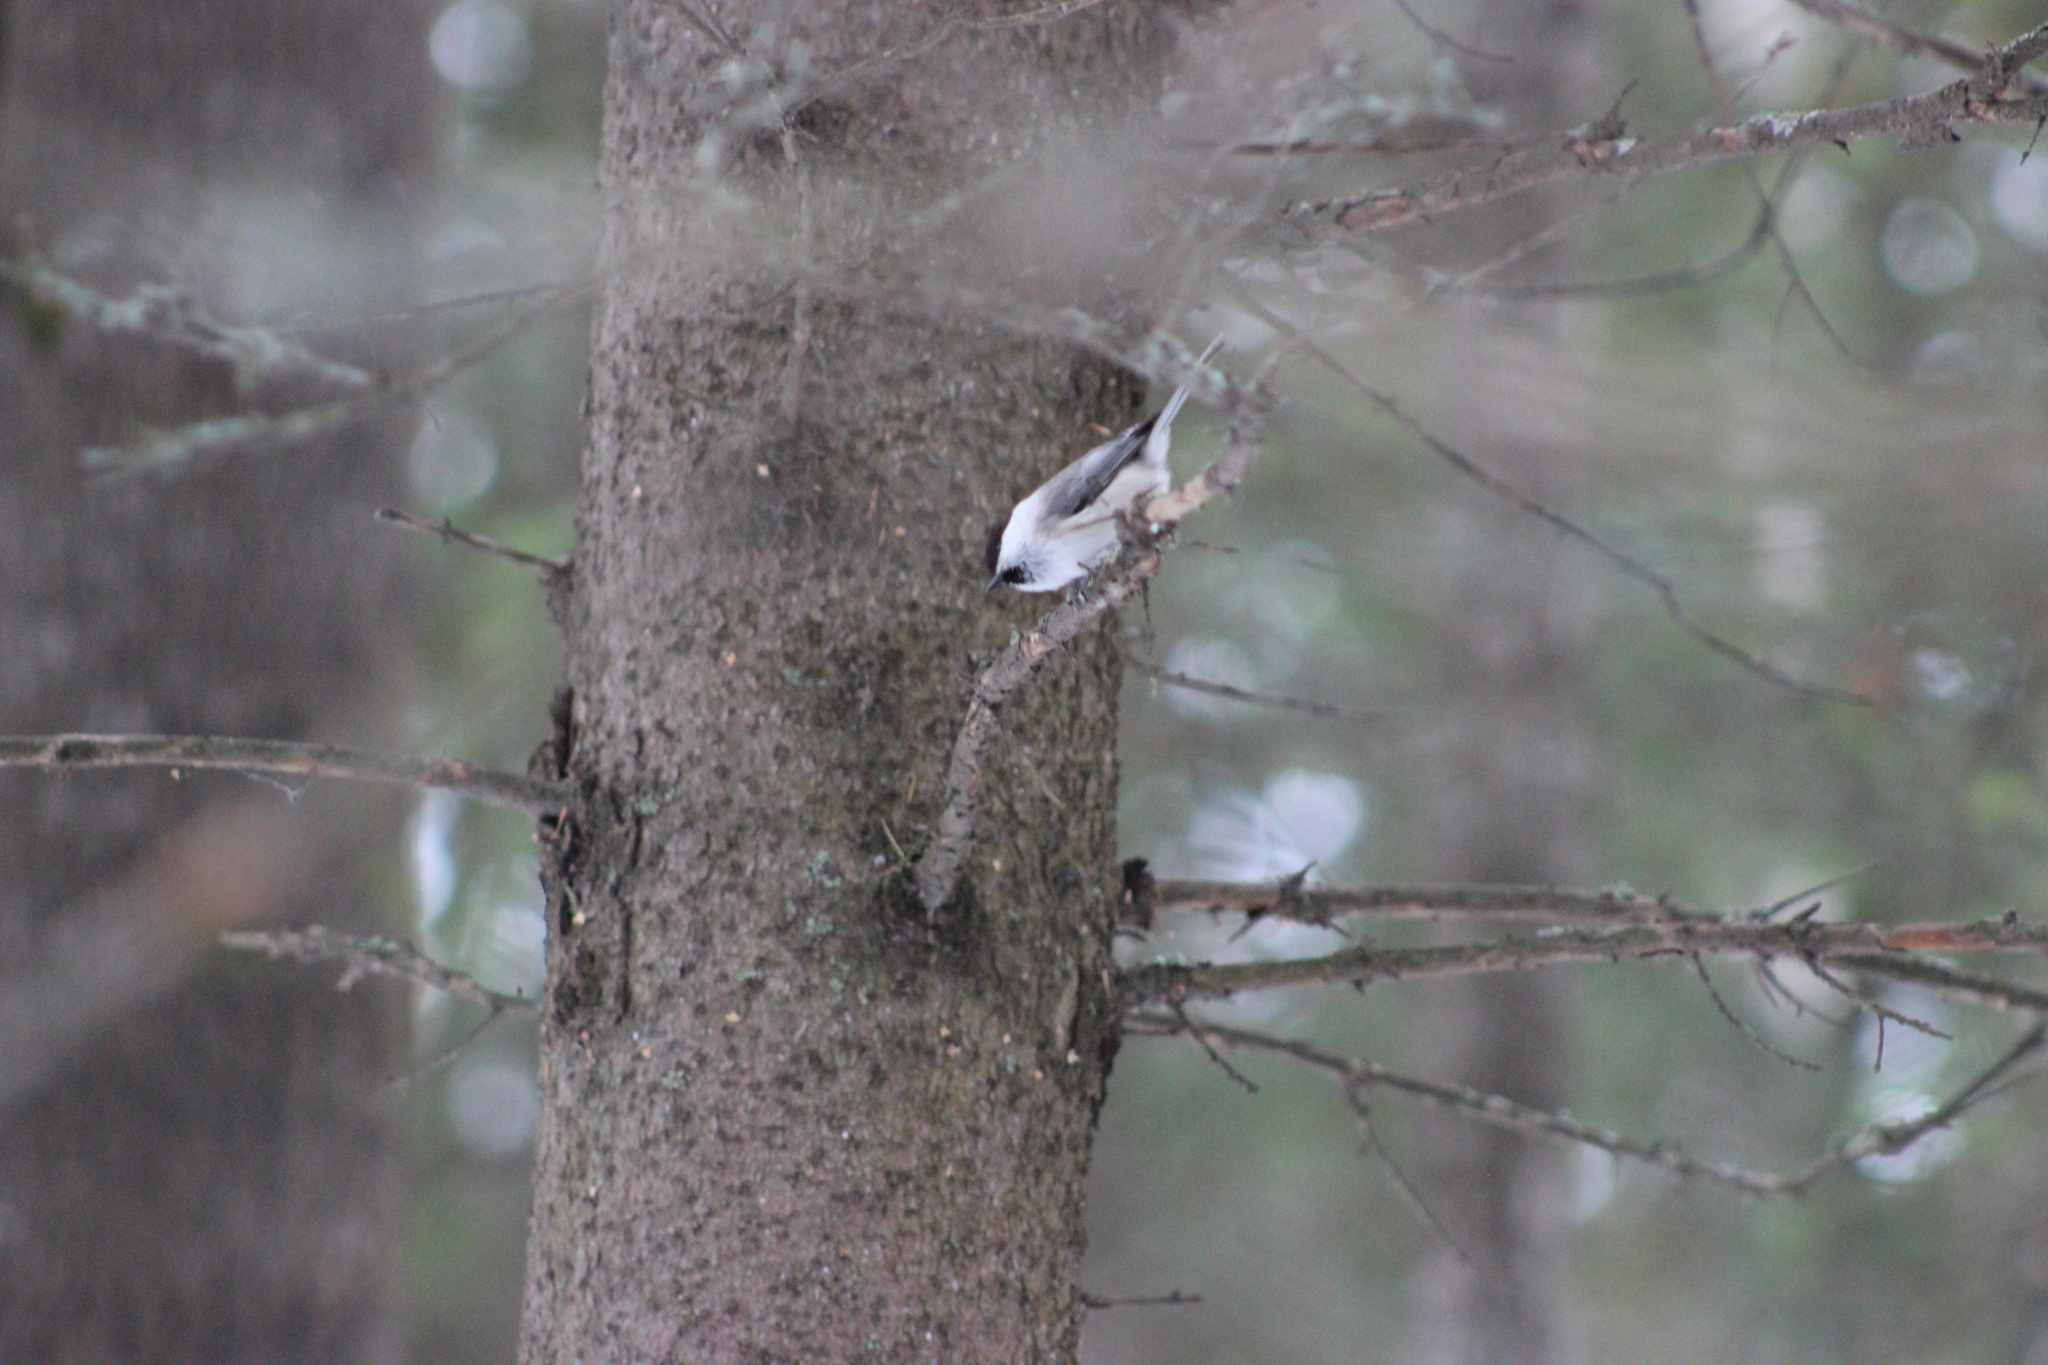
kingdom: Animalia
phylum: Chordata
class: Aves
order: Passeriformes
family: Paridae
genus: Poecile
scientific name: Poecile montanus
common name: Willow tit
